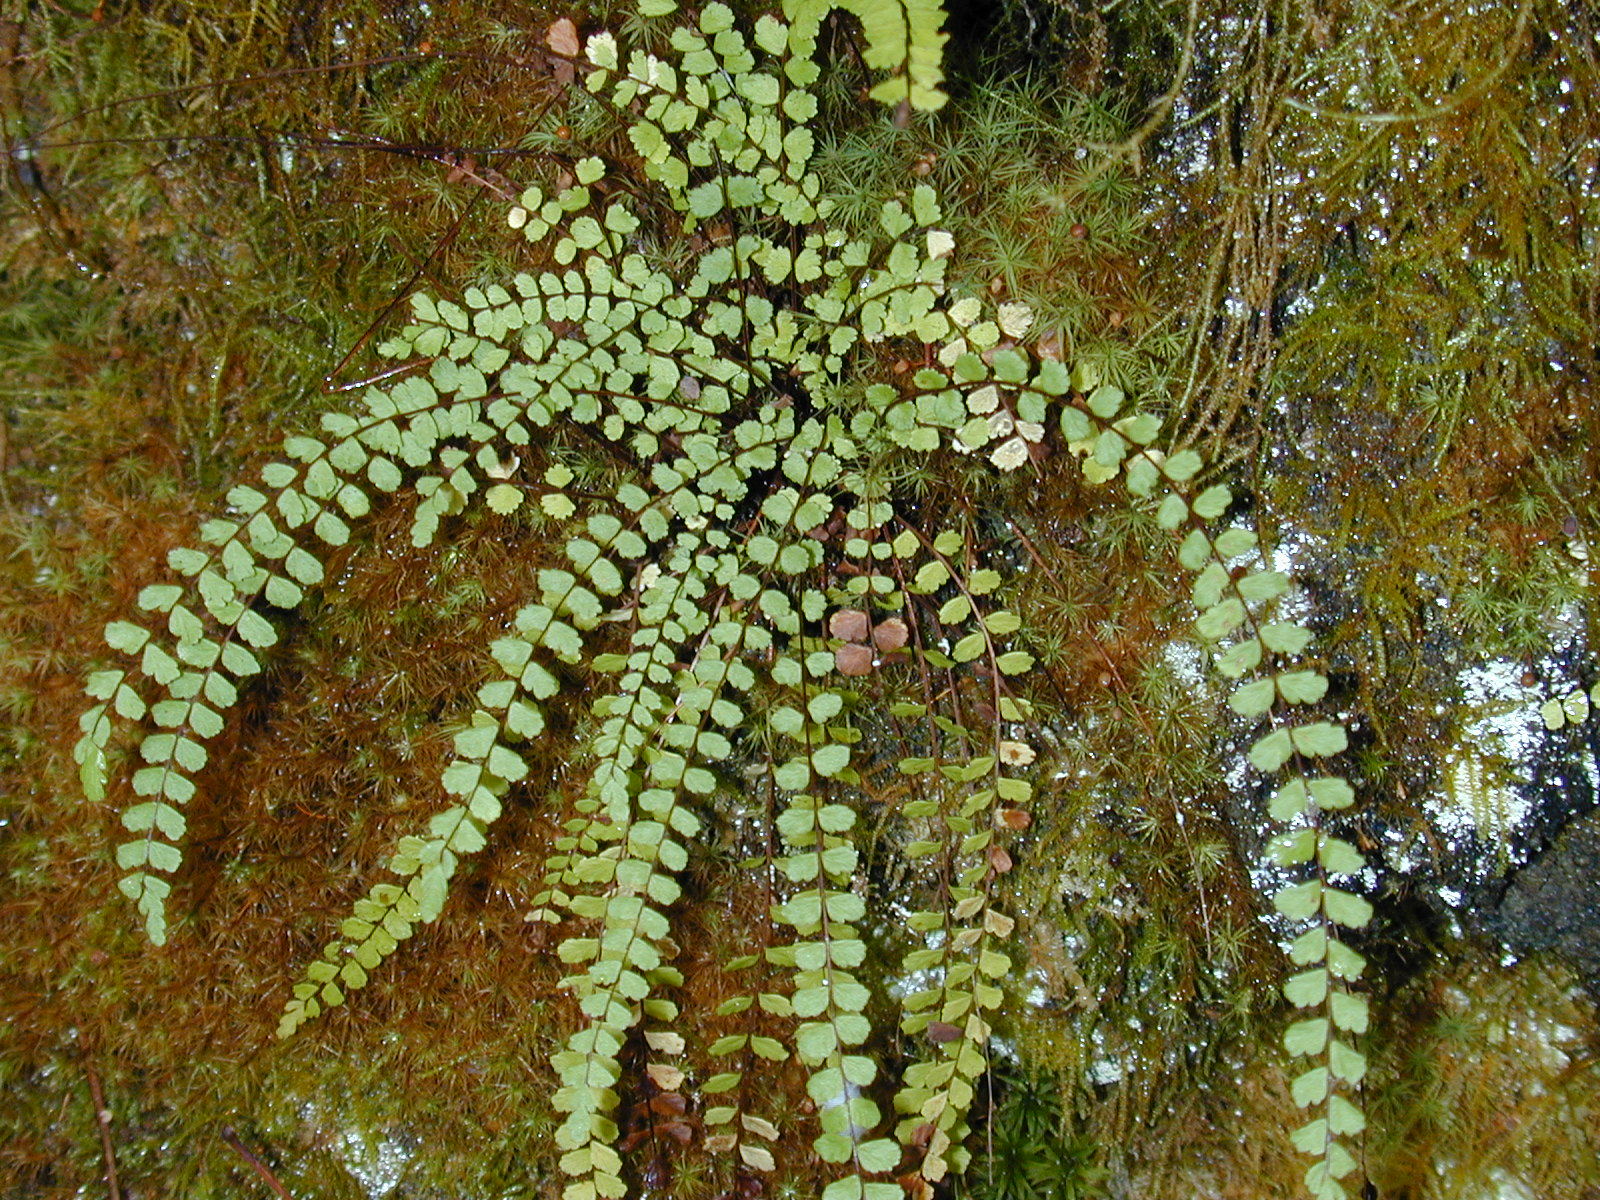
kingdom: Plantae
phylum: Tracheophyta
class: Polypodiopsida
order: Polypodiales
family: Aspleniaceae
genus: Asplenium
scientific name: Asplenium trichomanes
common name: Maidenhair spleenwort
